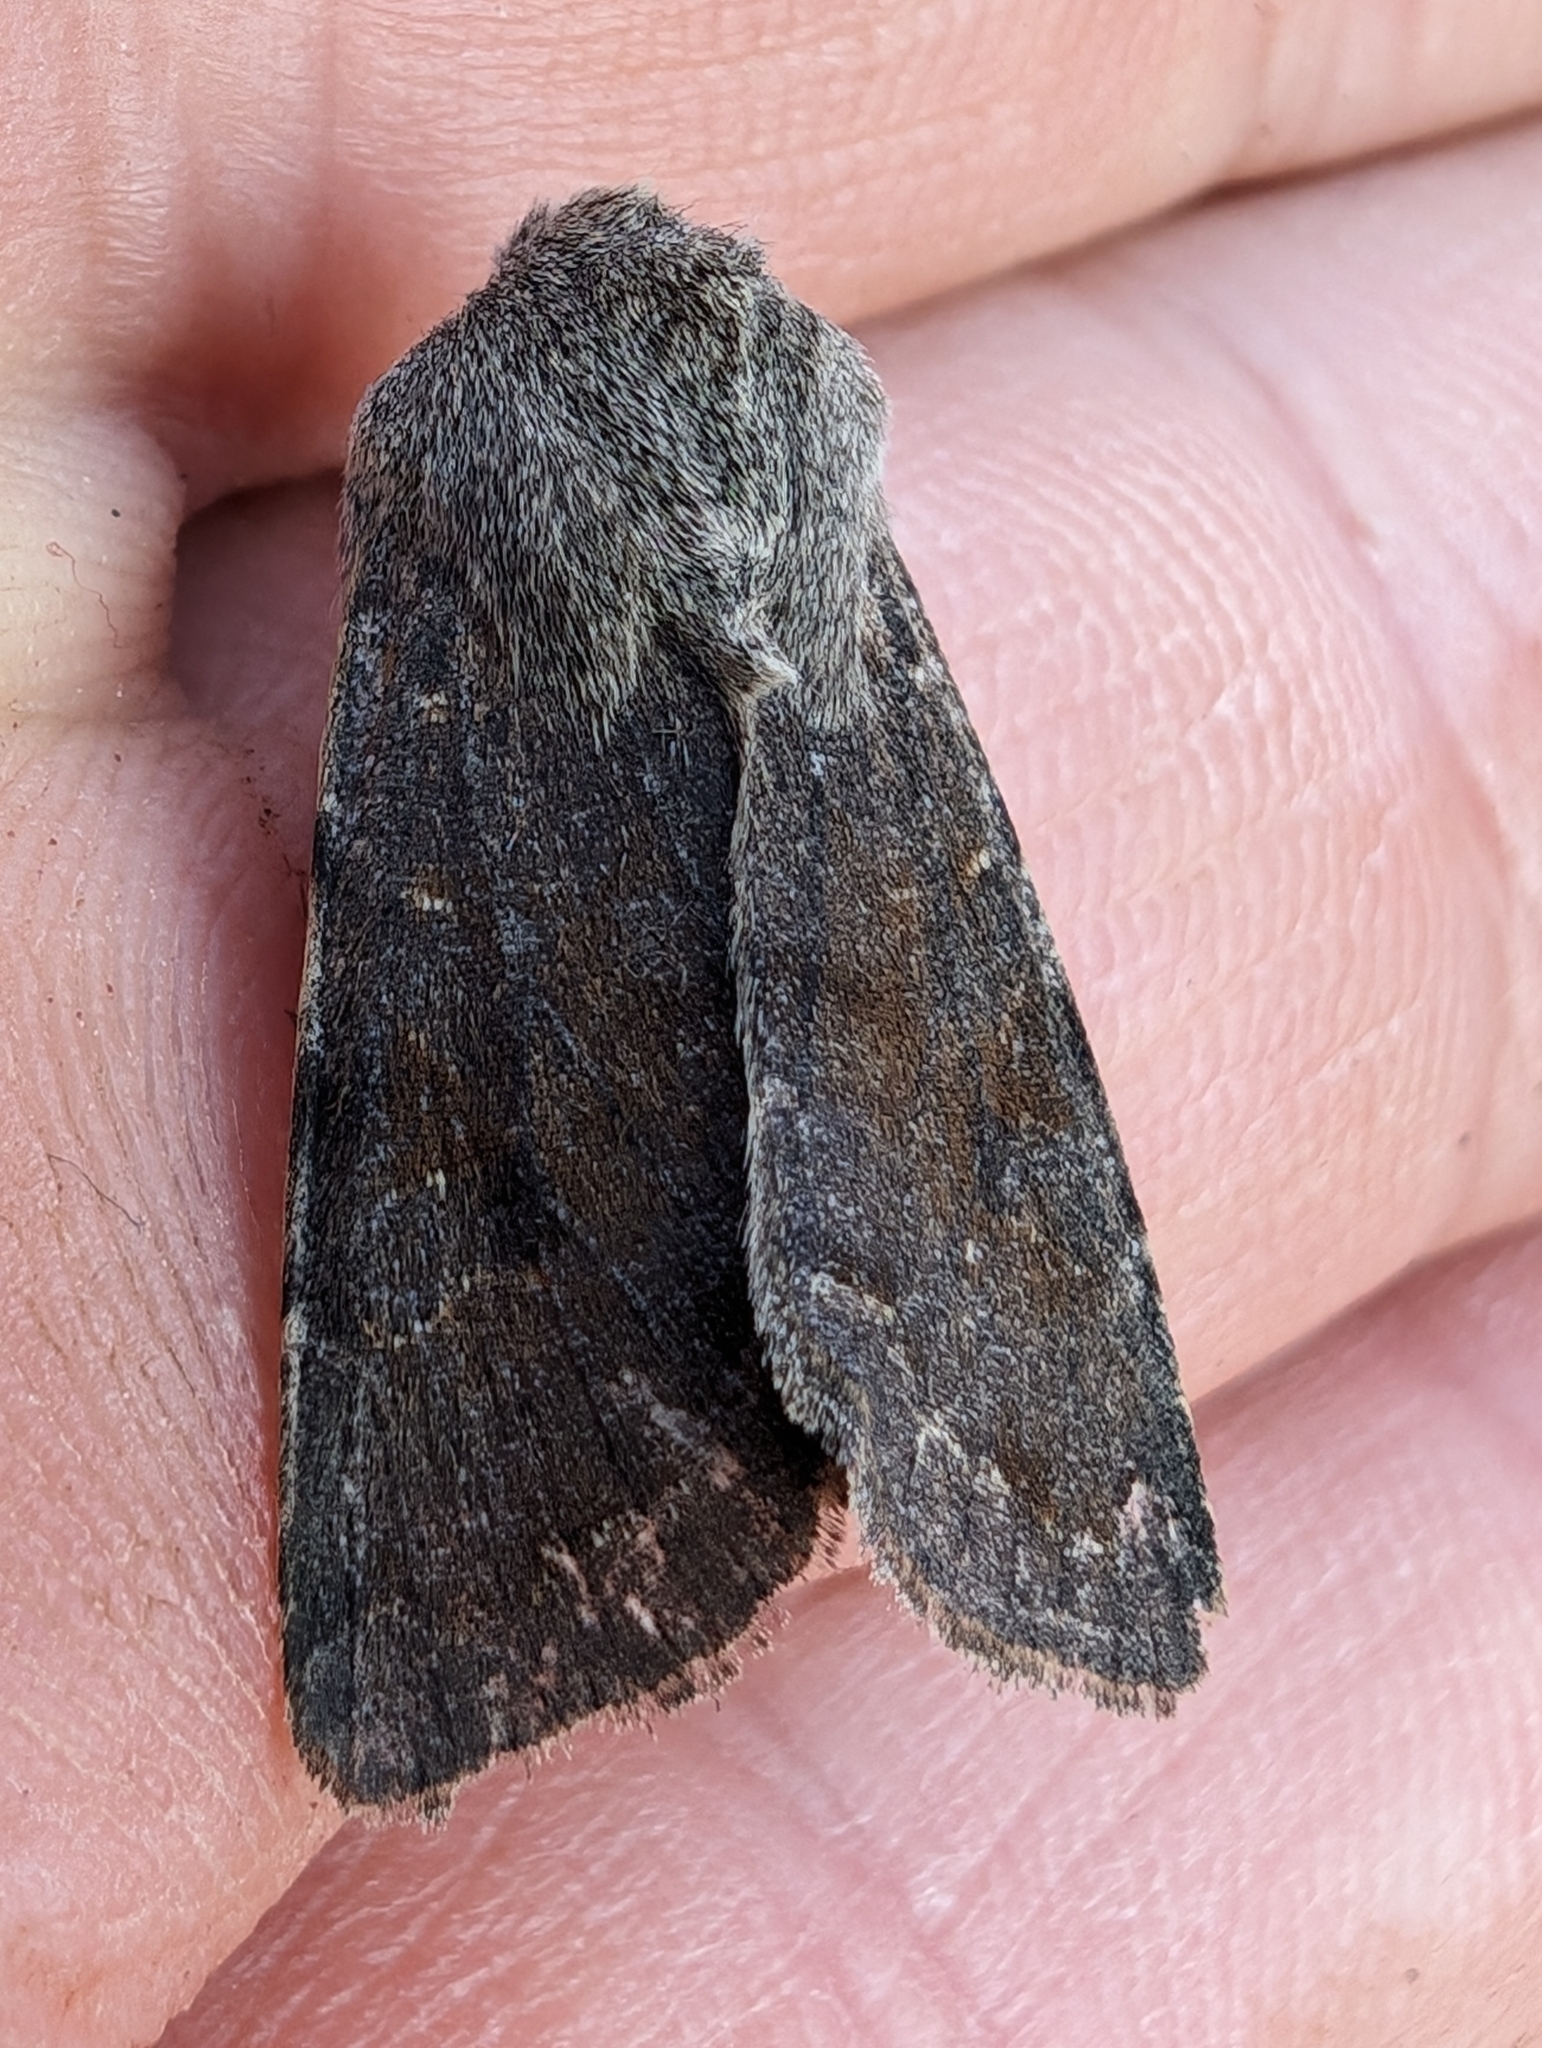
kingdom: Animalia
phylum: Arthropoda
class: Insecta
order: Lepidoptera
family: Noctuidae
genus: Orthosia
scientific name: Orthosia incerta
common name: Clouded drab
